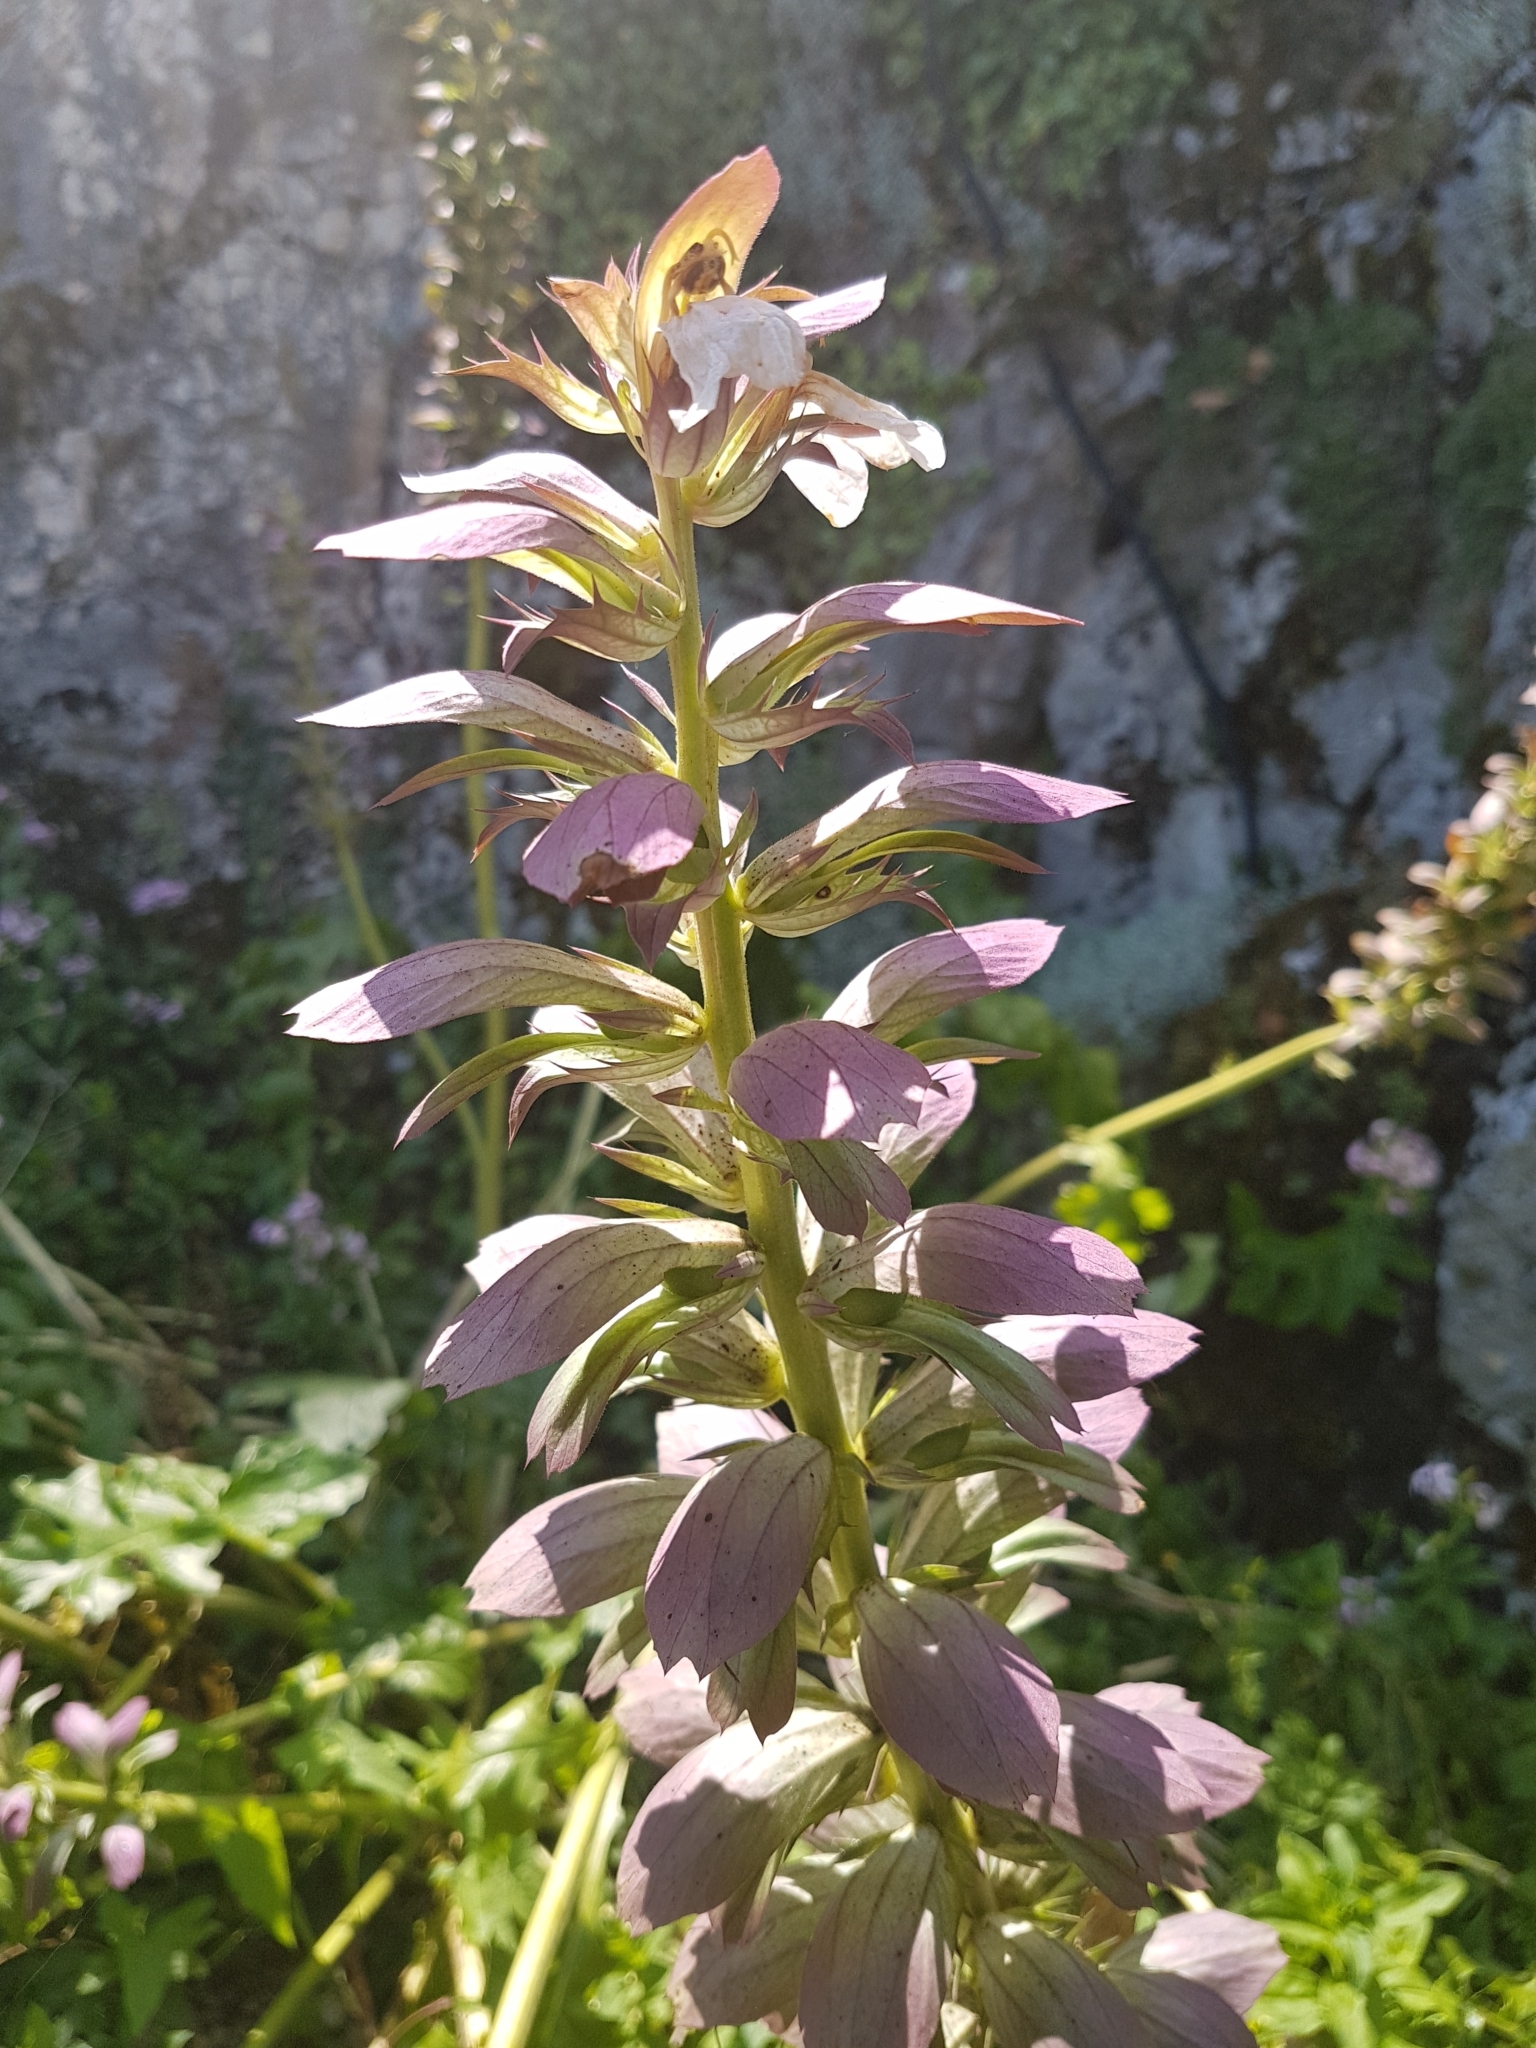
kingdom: Plantae
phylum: Tracheophyta
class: Magnoliopsida
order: Lamiales
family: Acanthaceae
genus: Acanthus
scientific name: Acanthus mollis
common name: Bear's-breech
